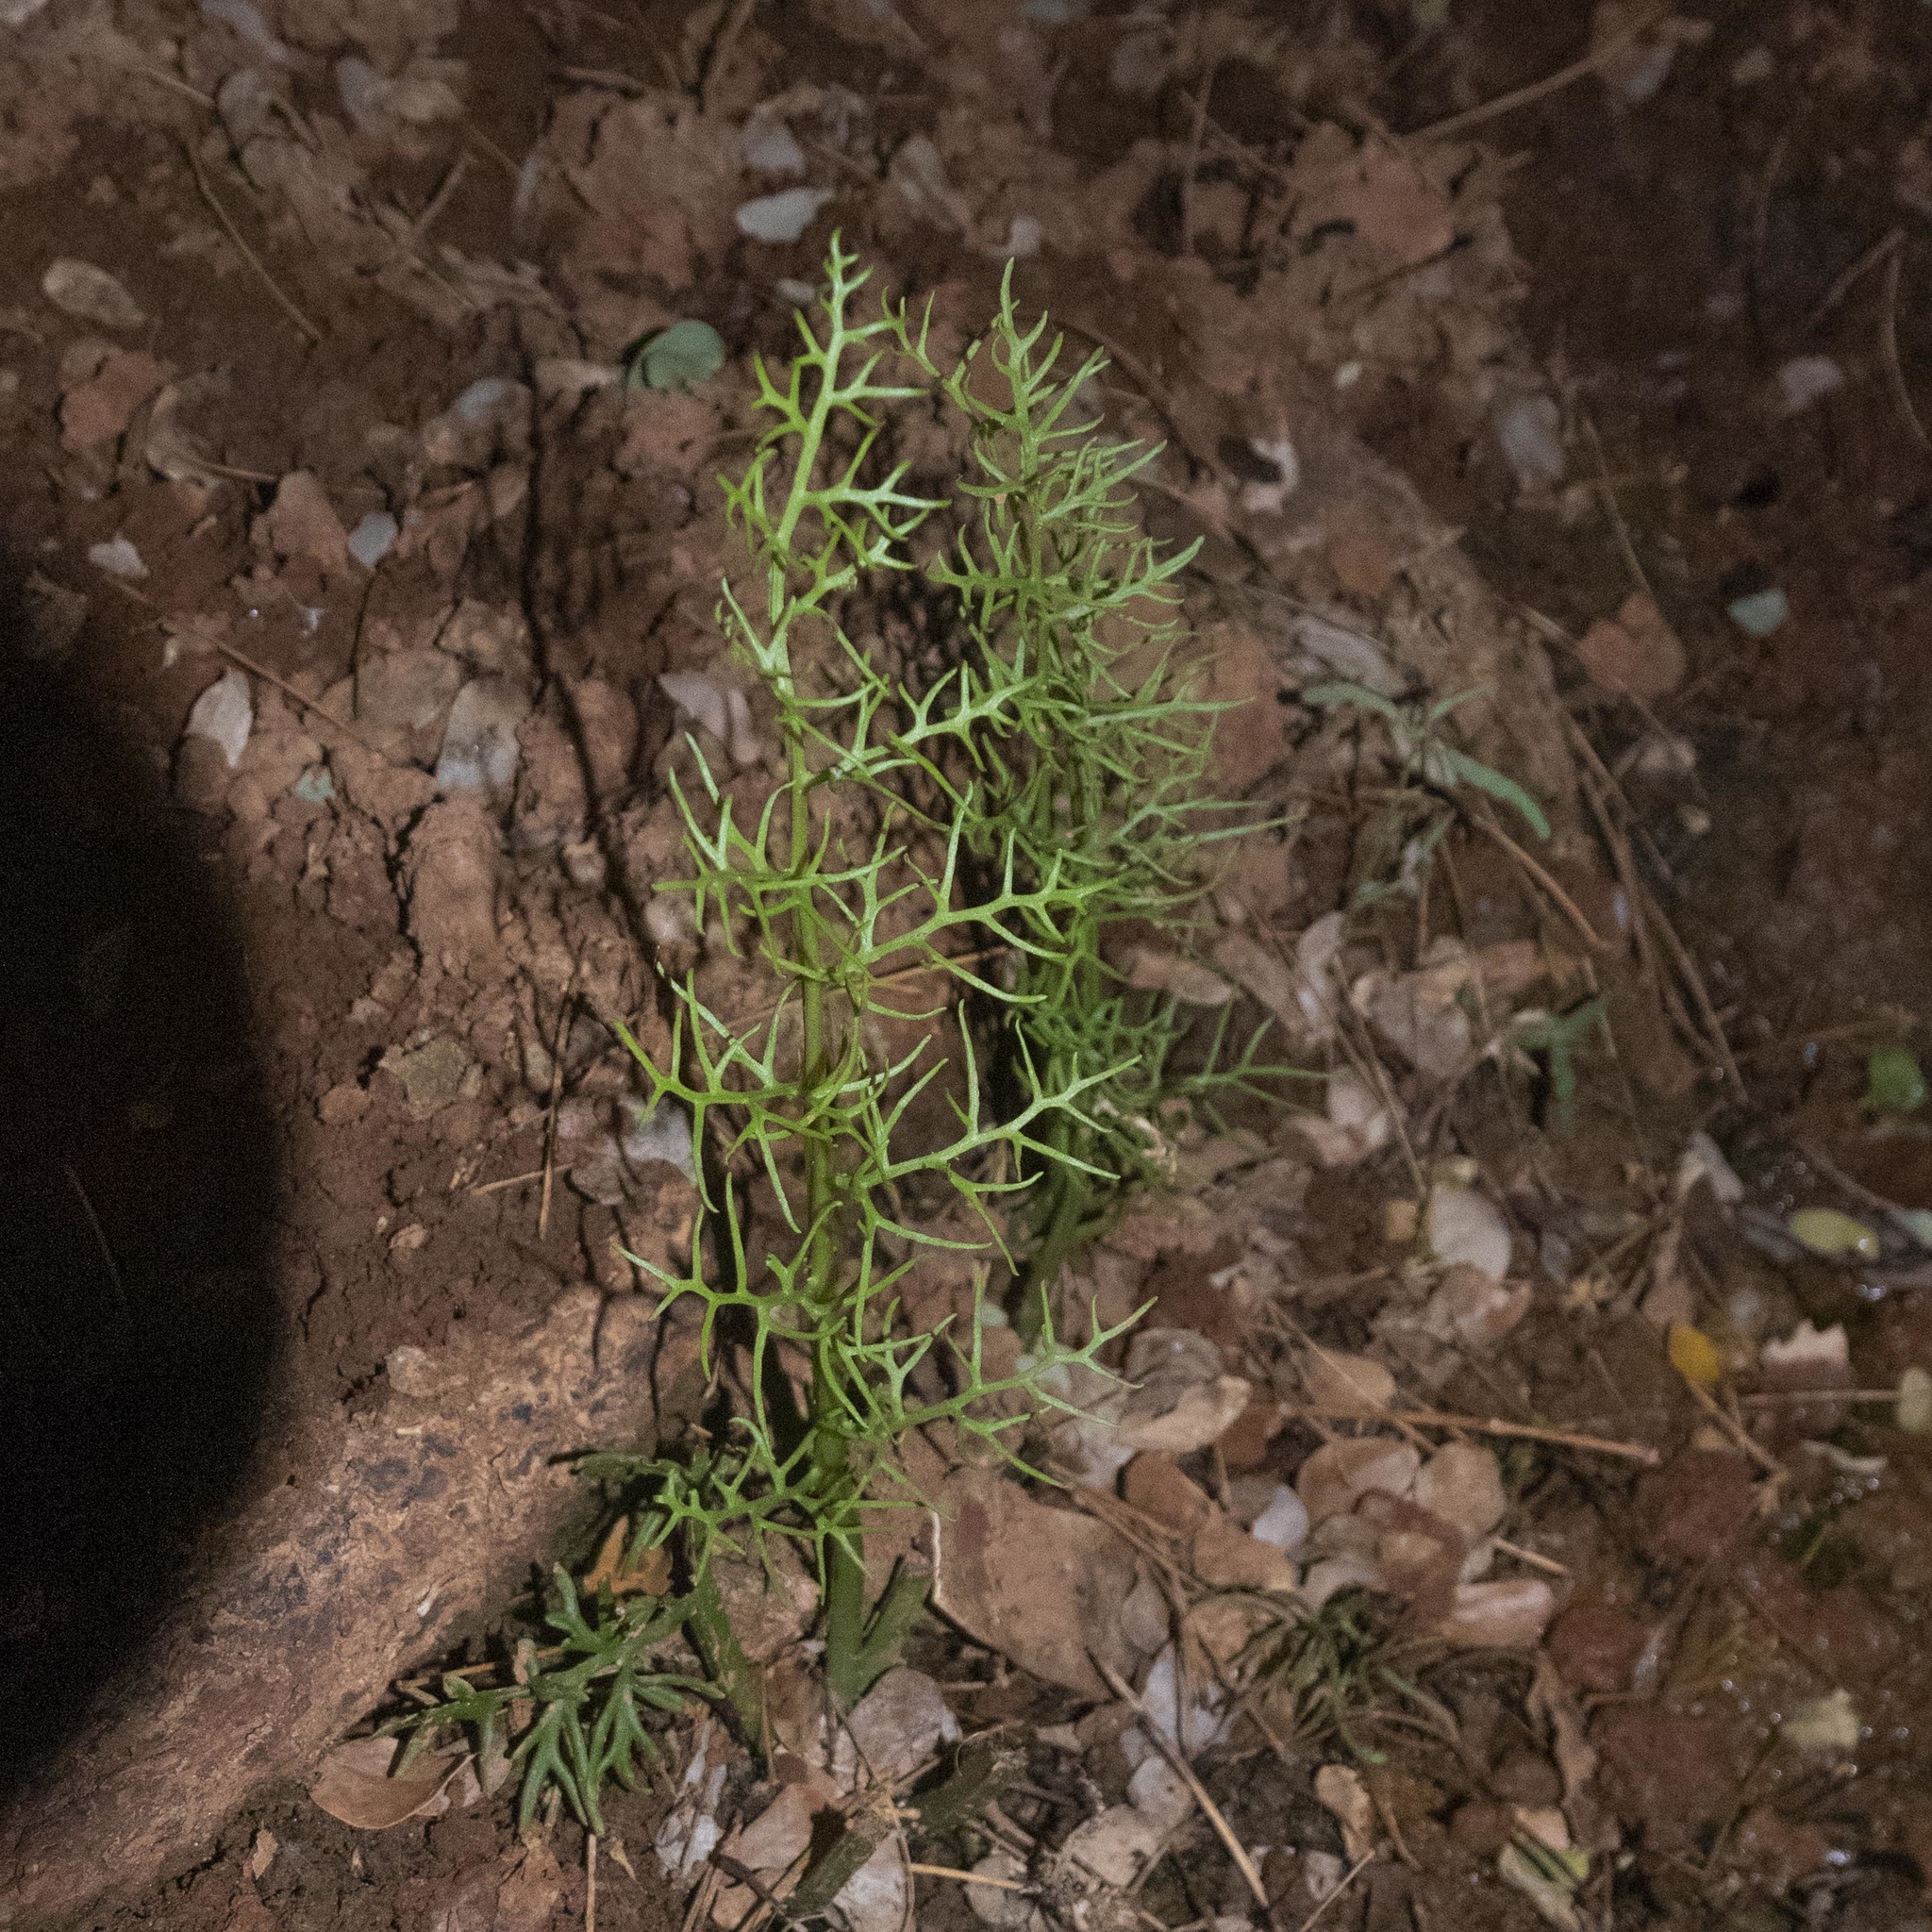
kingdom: Plantae
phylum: Tracheophyta
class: Polypodiopsida
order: Polypodiales
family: Pteridaceae
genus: Ceratopteris
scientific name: Ceratopteris thalictroides
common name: Water fern
